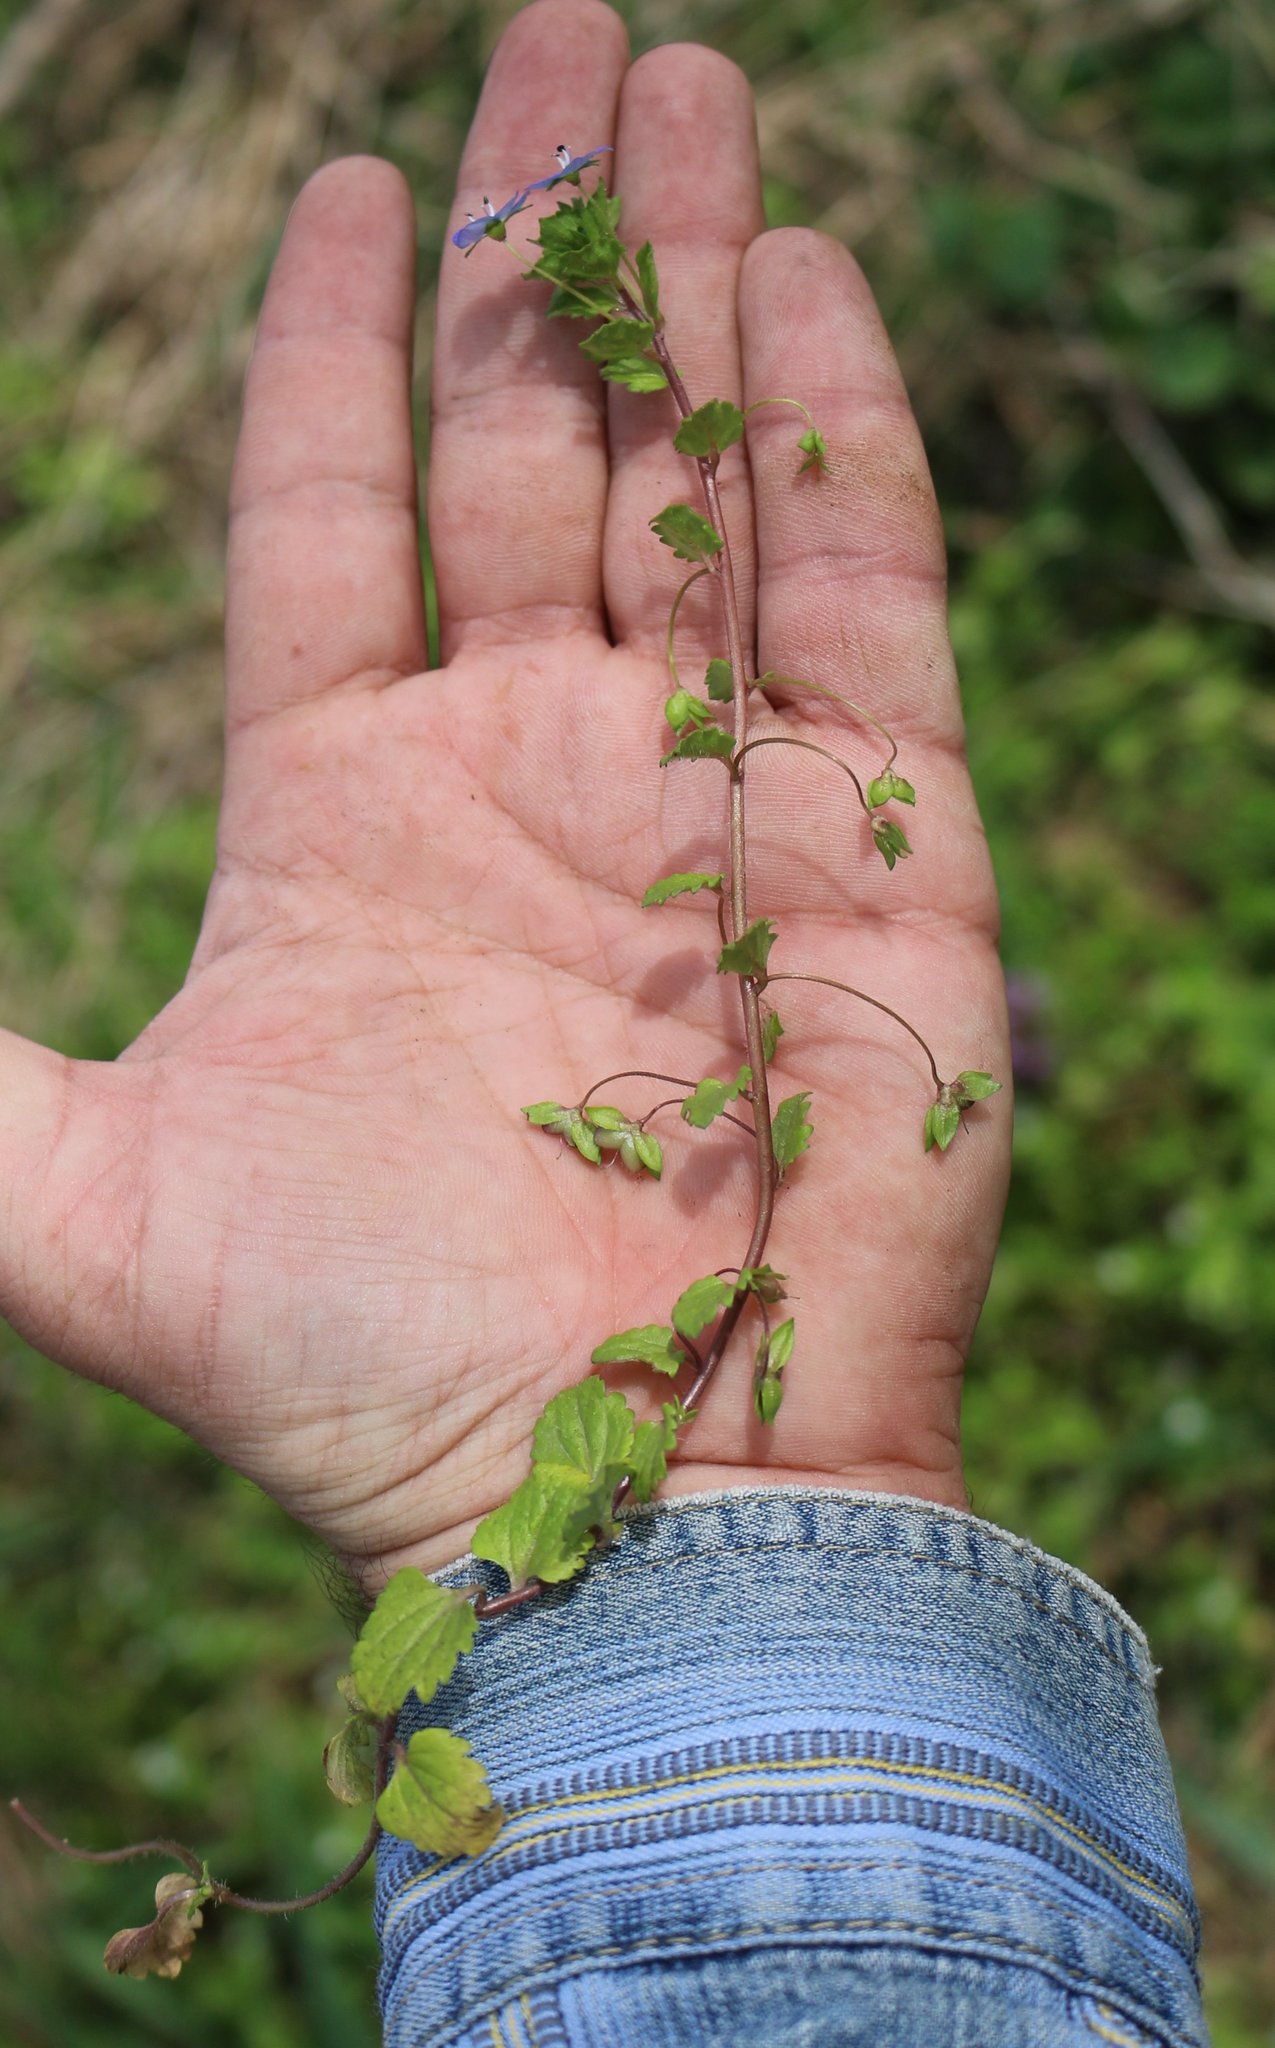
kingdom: Plantae
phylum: Tracheophyta
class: Magnoliopsida
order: Lamiales
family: Plantaginaceae
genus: Veronica
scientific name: Veronica persica
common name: Common field-speedwell
